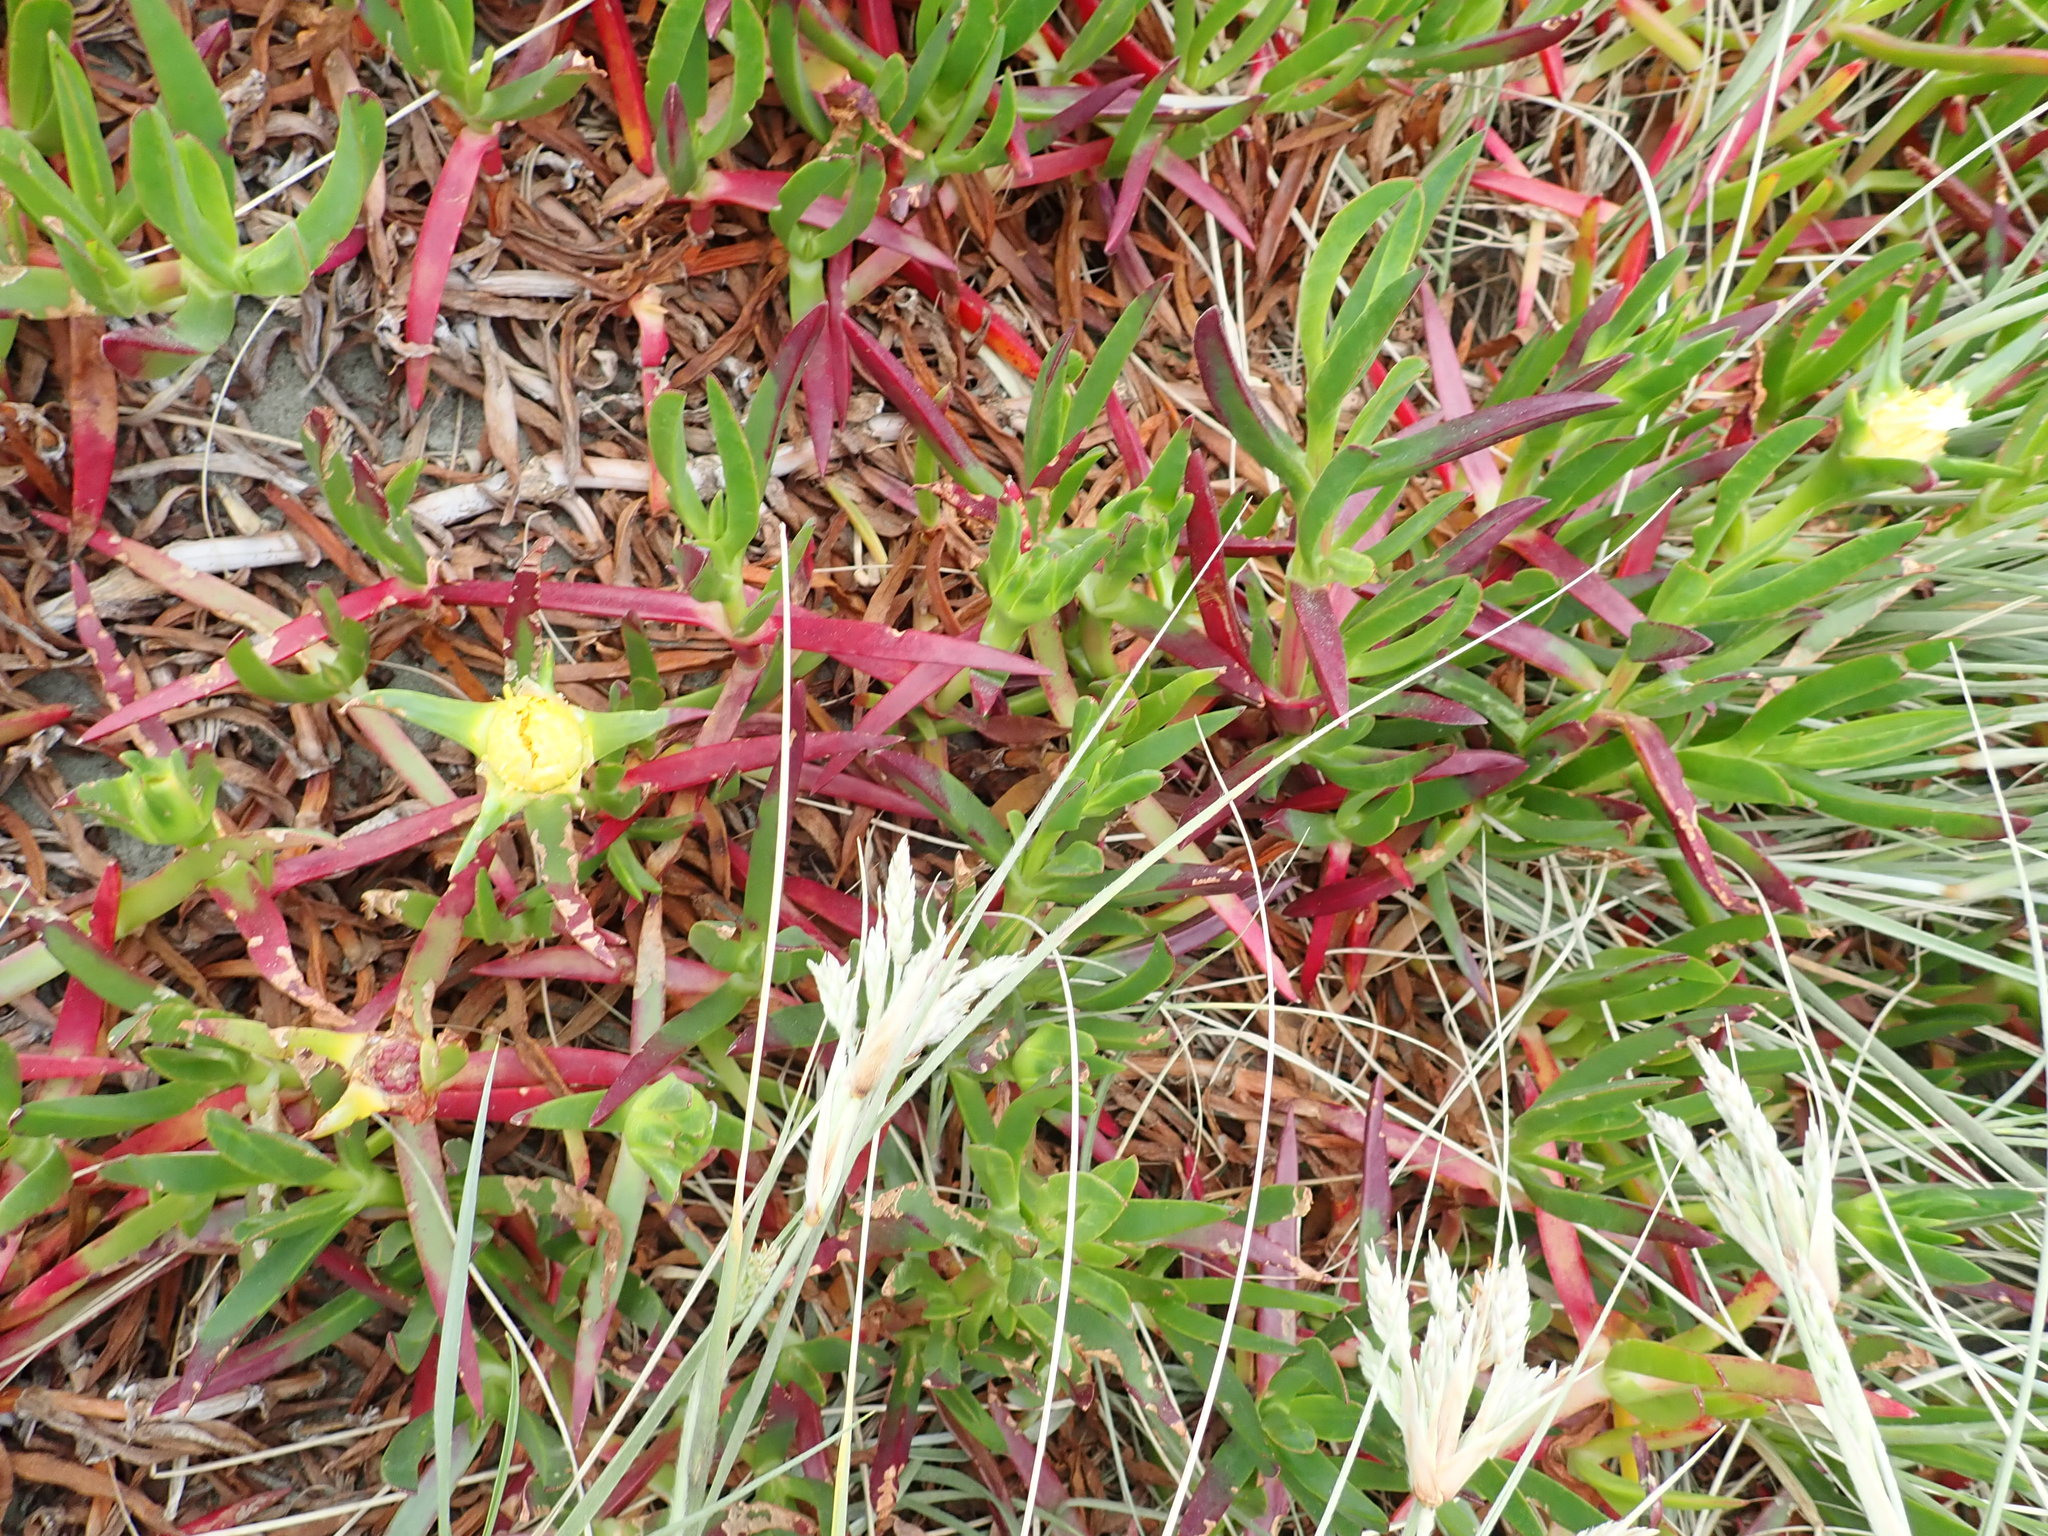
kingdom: Plantae
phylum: Tracheophyta
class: Magnoliopsida
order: Caryophyllales
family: Aizoaceae
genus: Carpobrotus
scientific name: Carpobrotus edulis
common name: Hottentot-fig
